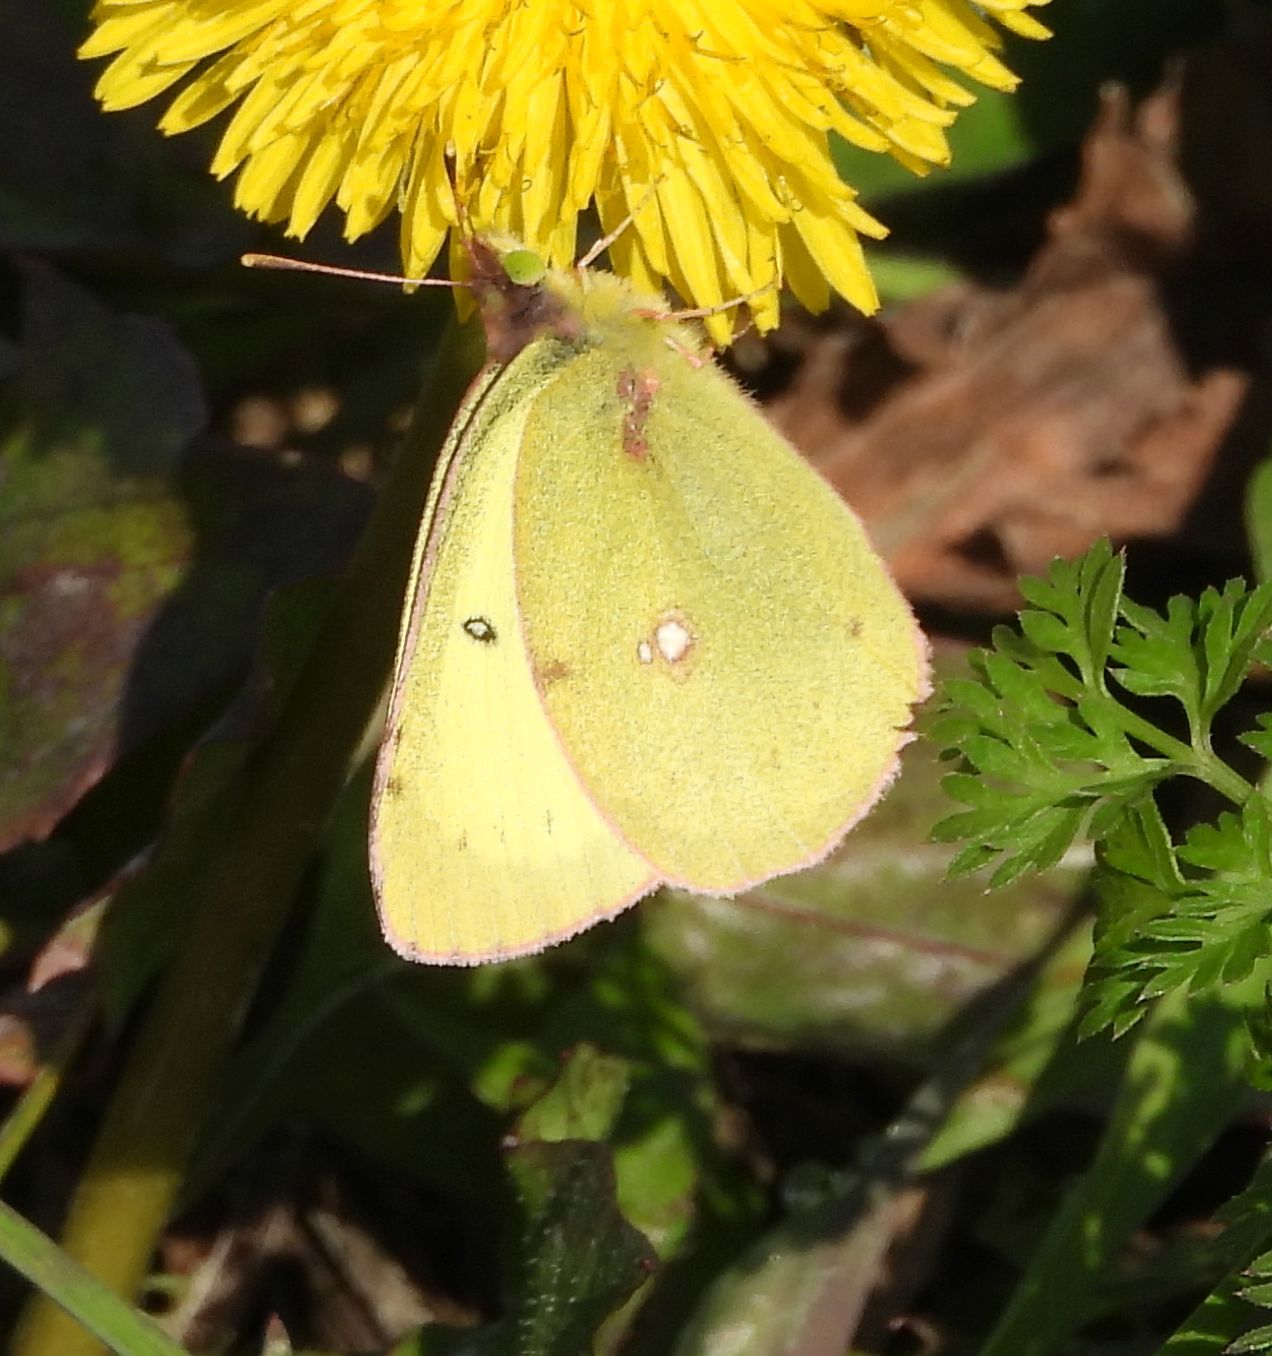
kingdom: Animalia
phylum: Arthropoda
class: Insecta
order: Lepidoptera
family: Pieridae
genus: Colias
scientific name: Colias philodice
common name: Clouded sulphur
